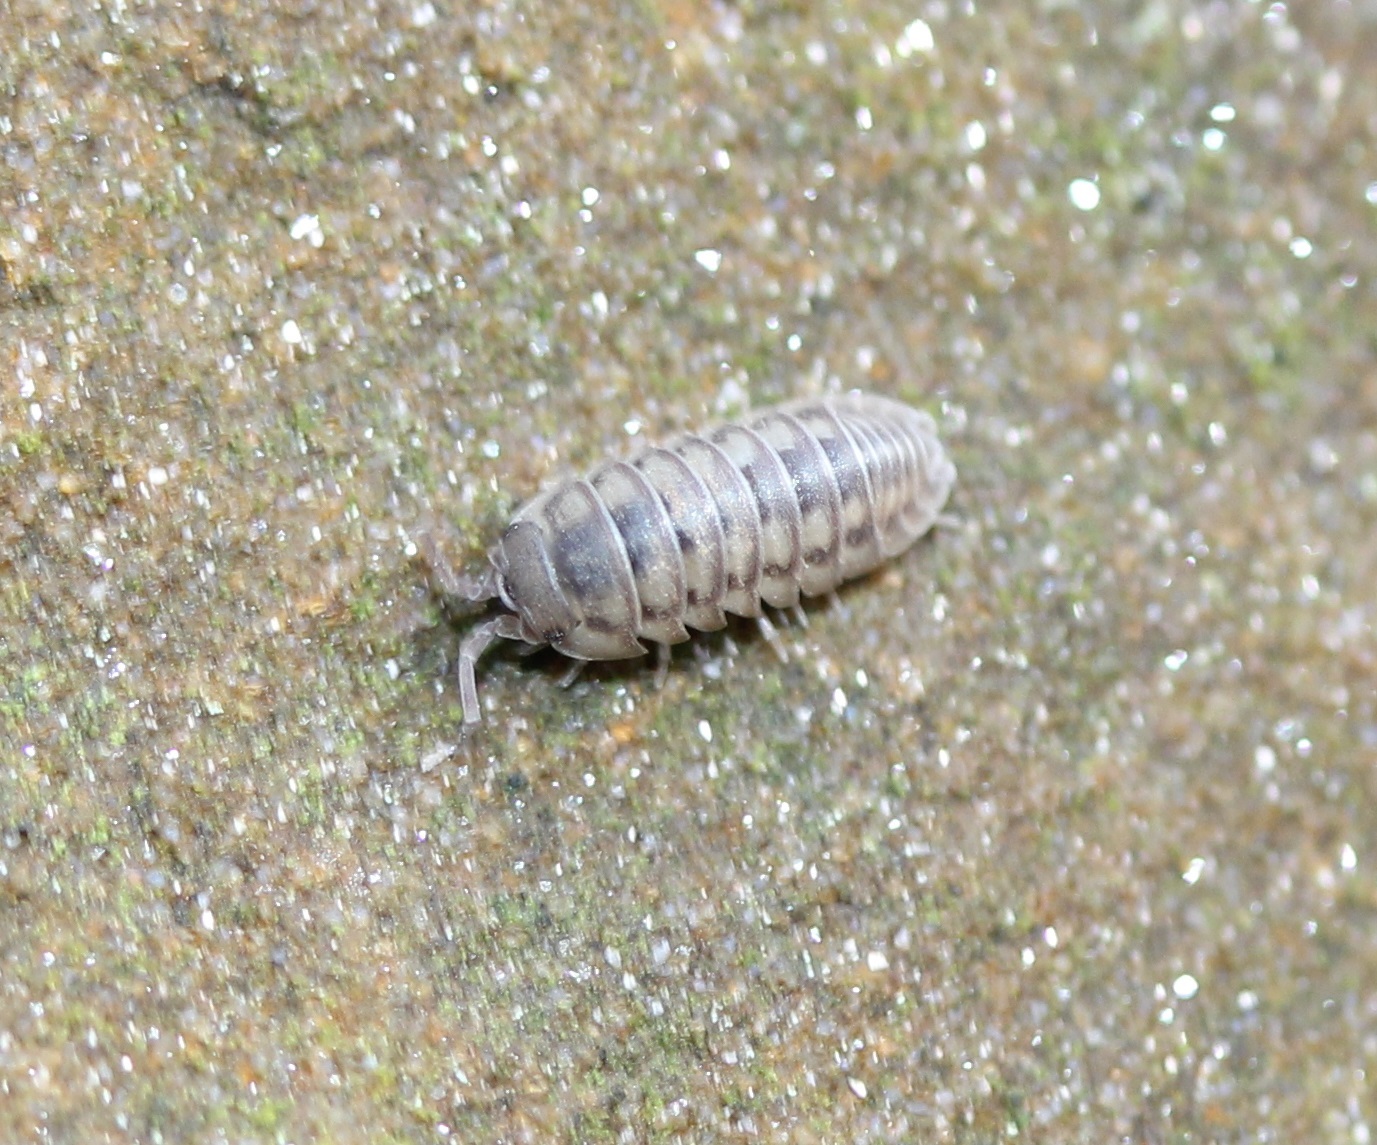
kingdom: Animalia
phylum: Arthropoda
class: Malacostraca
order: Isopoda
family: Armadillidiidae
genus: Armadillidium
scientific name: Armadillidium nasatum
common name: Isopod
